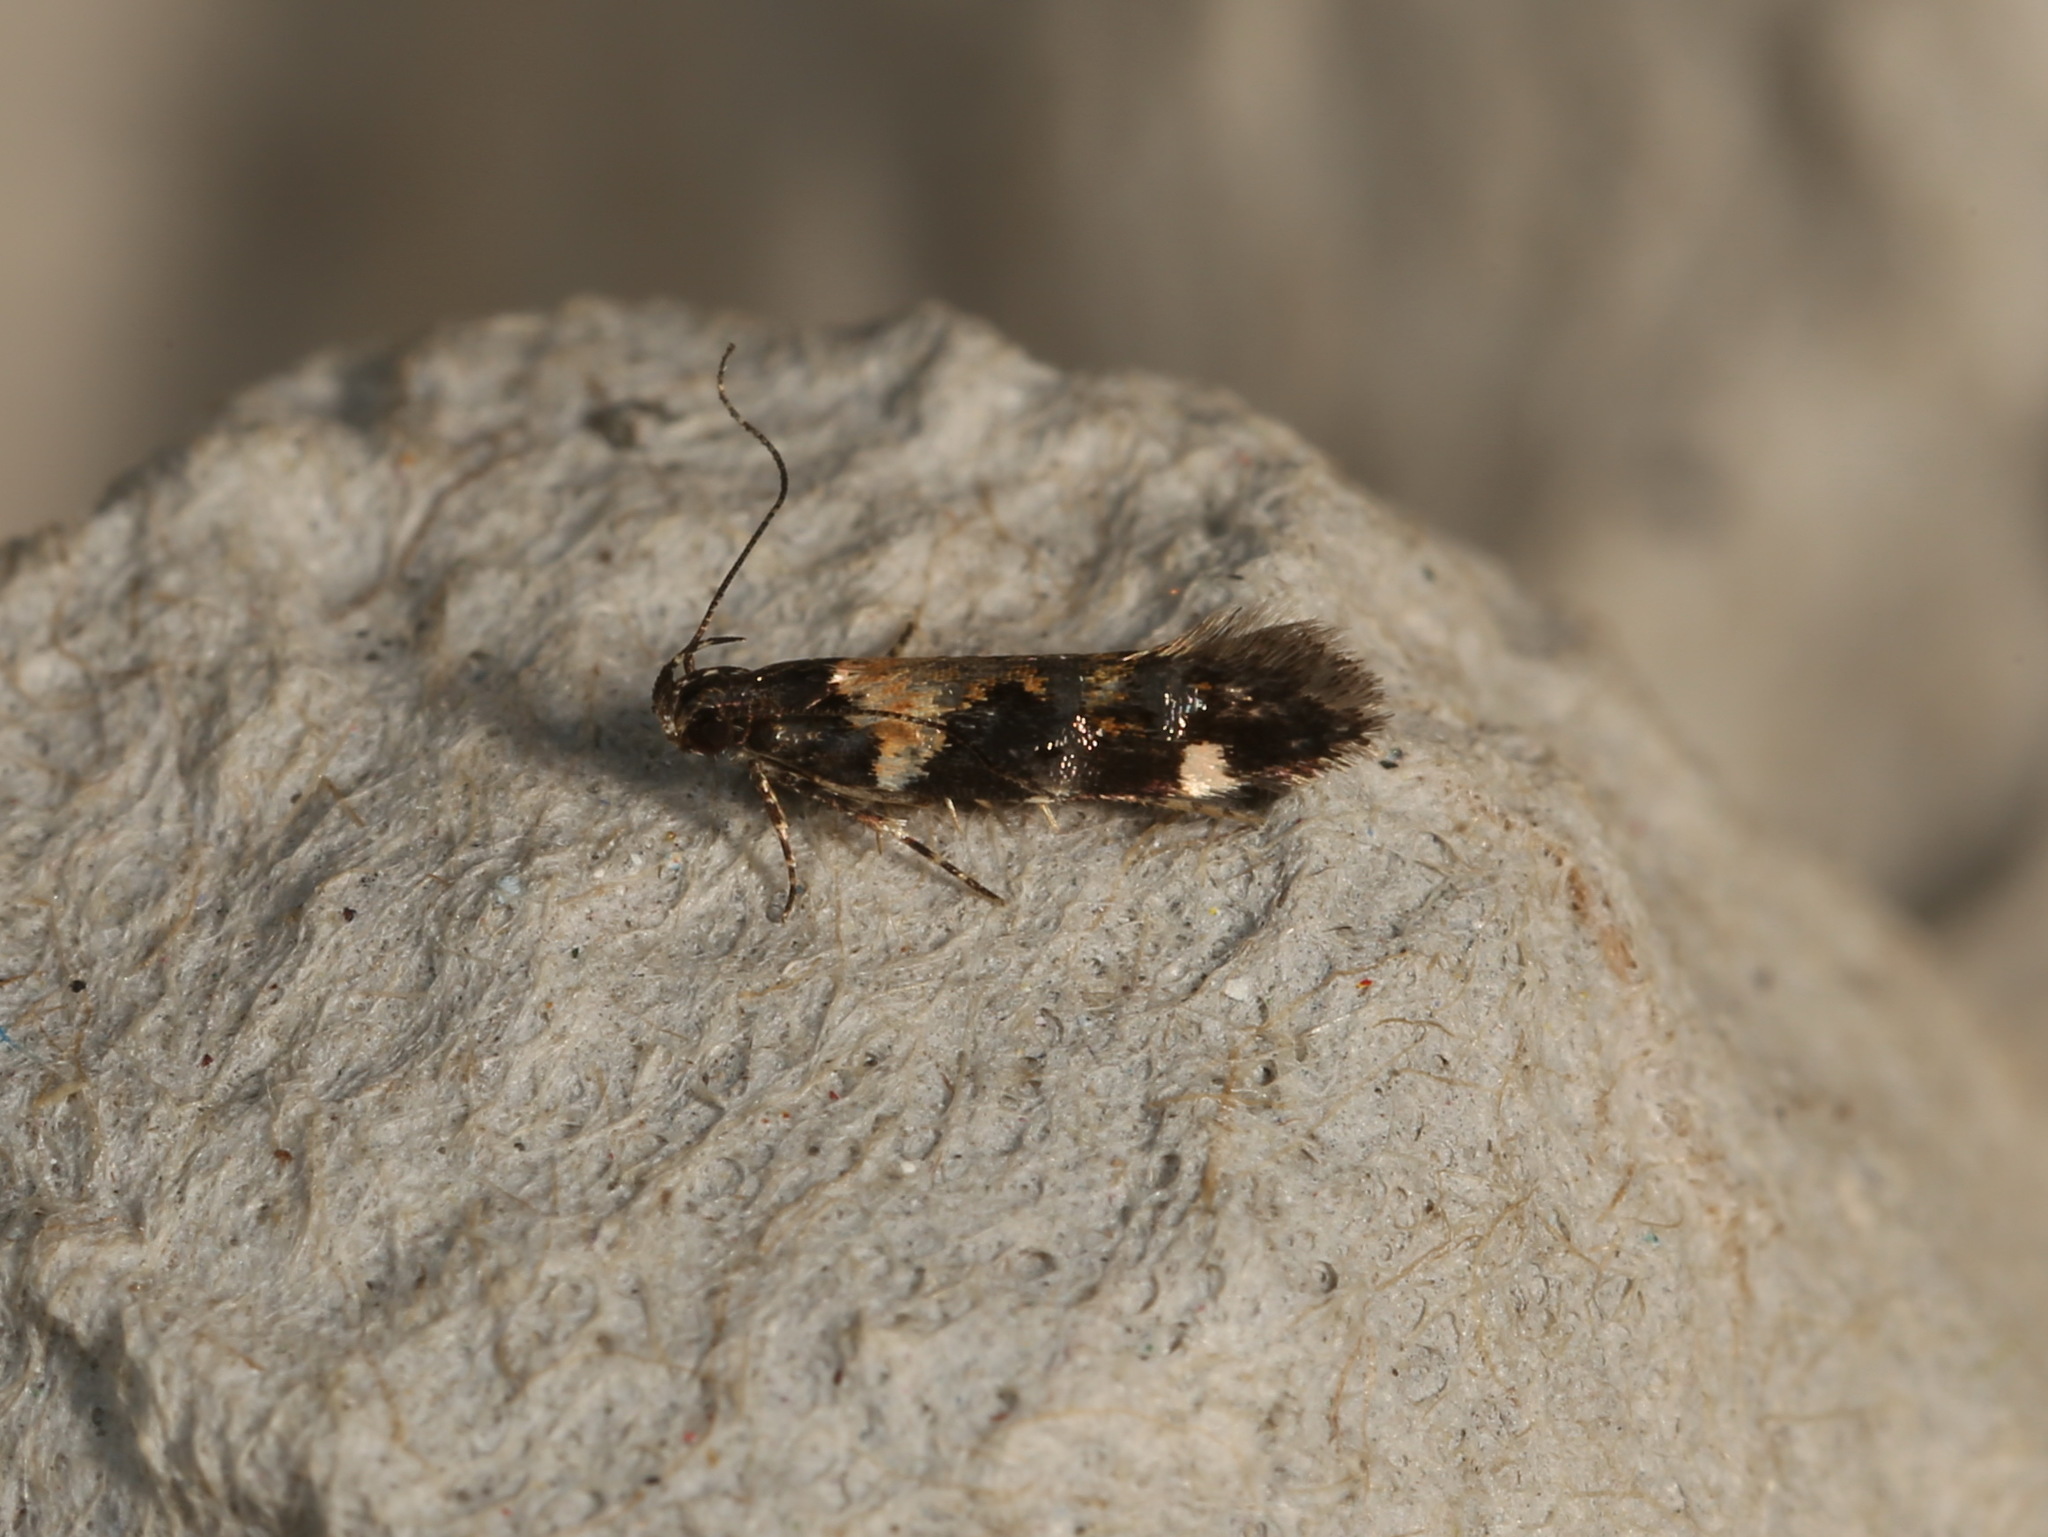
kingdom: Animalia
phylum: Arthropoda
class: Insecta
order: Lepidoptera
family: Gelechiidae
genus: Stegasta
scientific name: Stegasta variana
